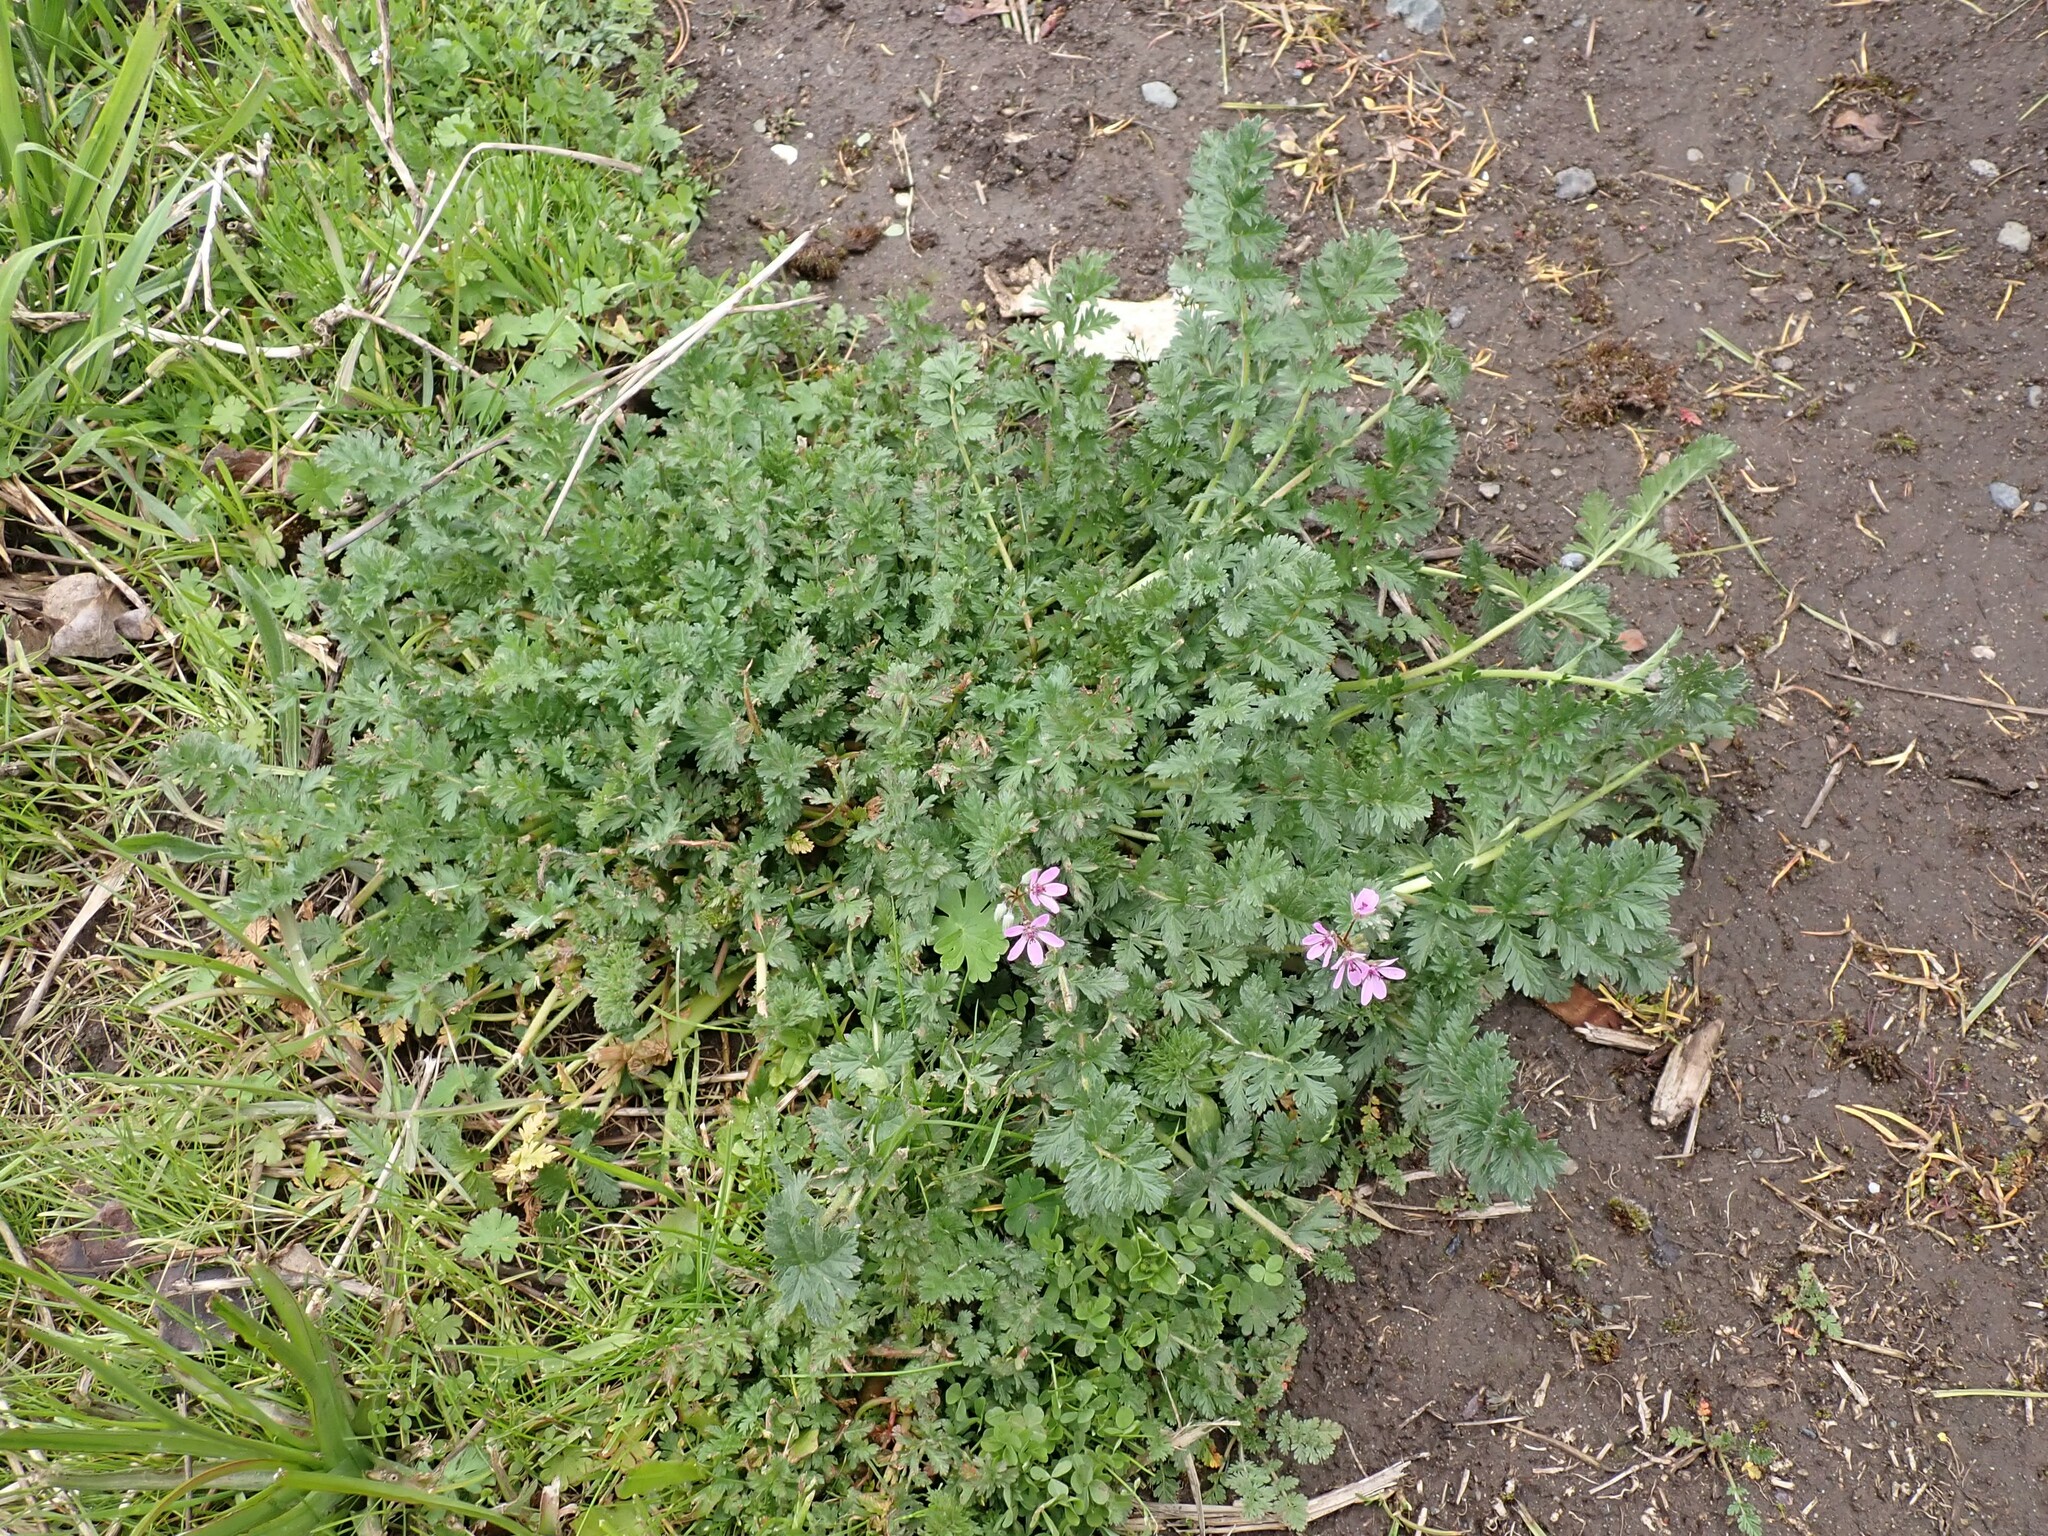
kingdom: Plantae
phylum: Tracheophyta
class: Magnoliopsida
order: Geraniales
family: Geraniaceae
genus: Erodium
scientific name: Erodium cicutarium
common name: Common stork's-bill
